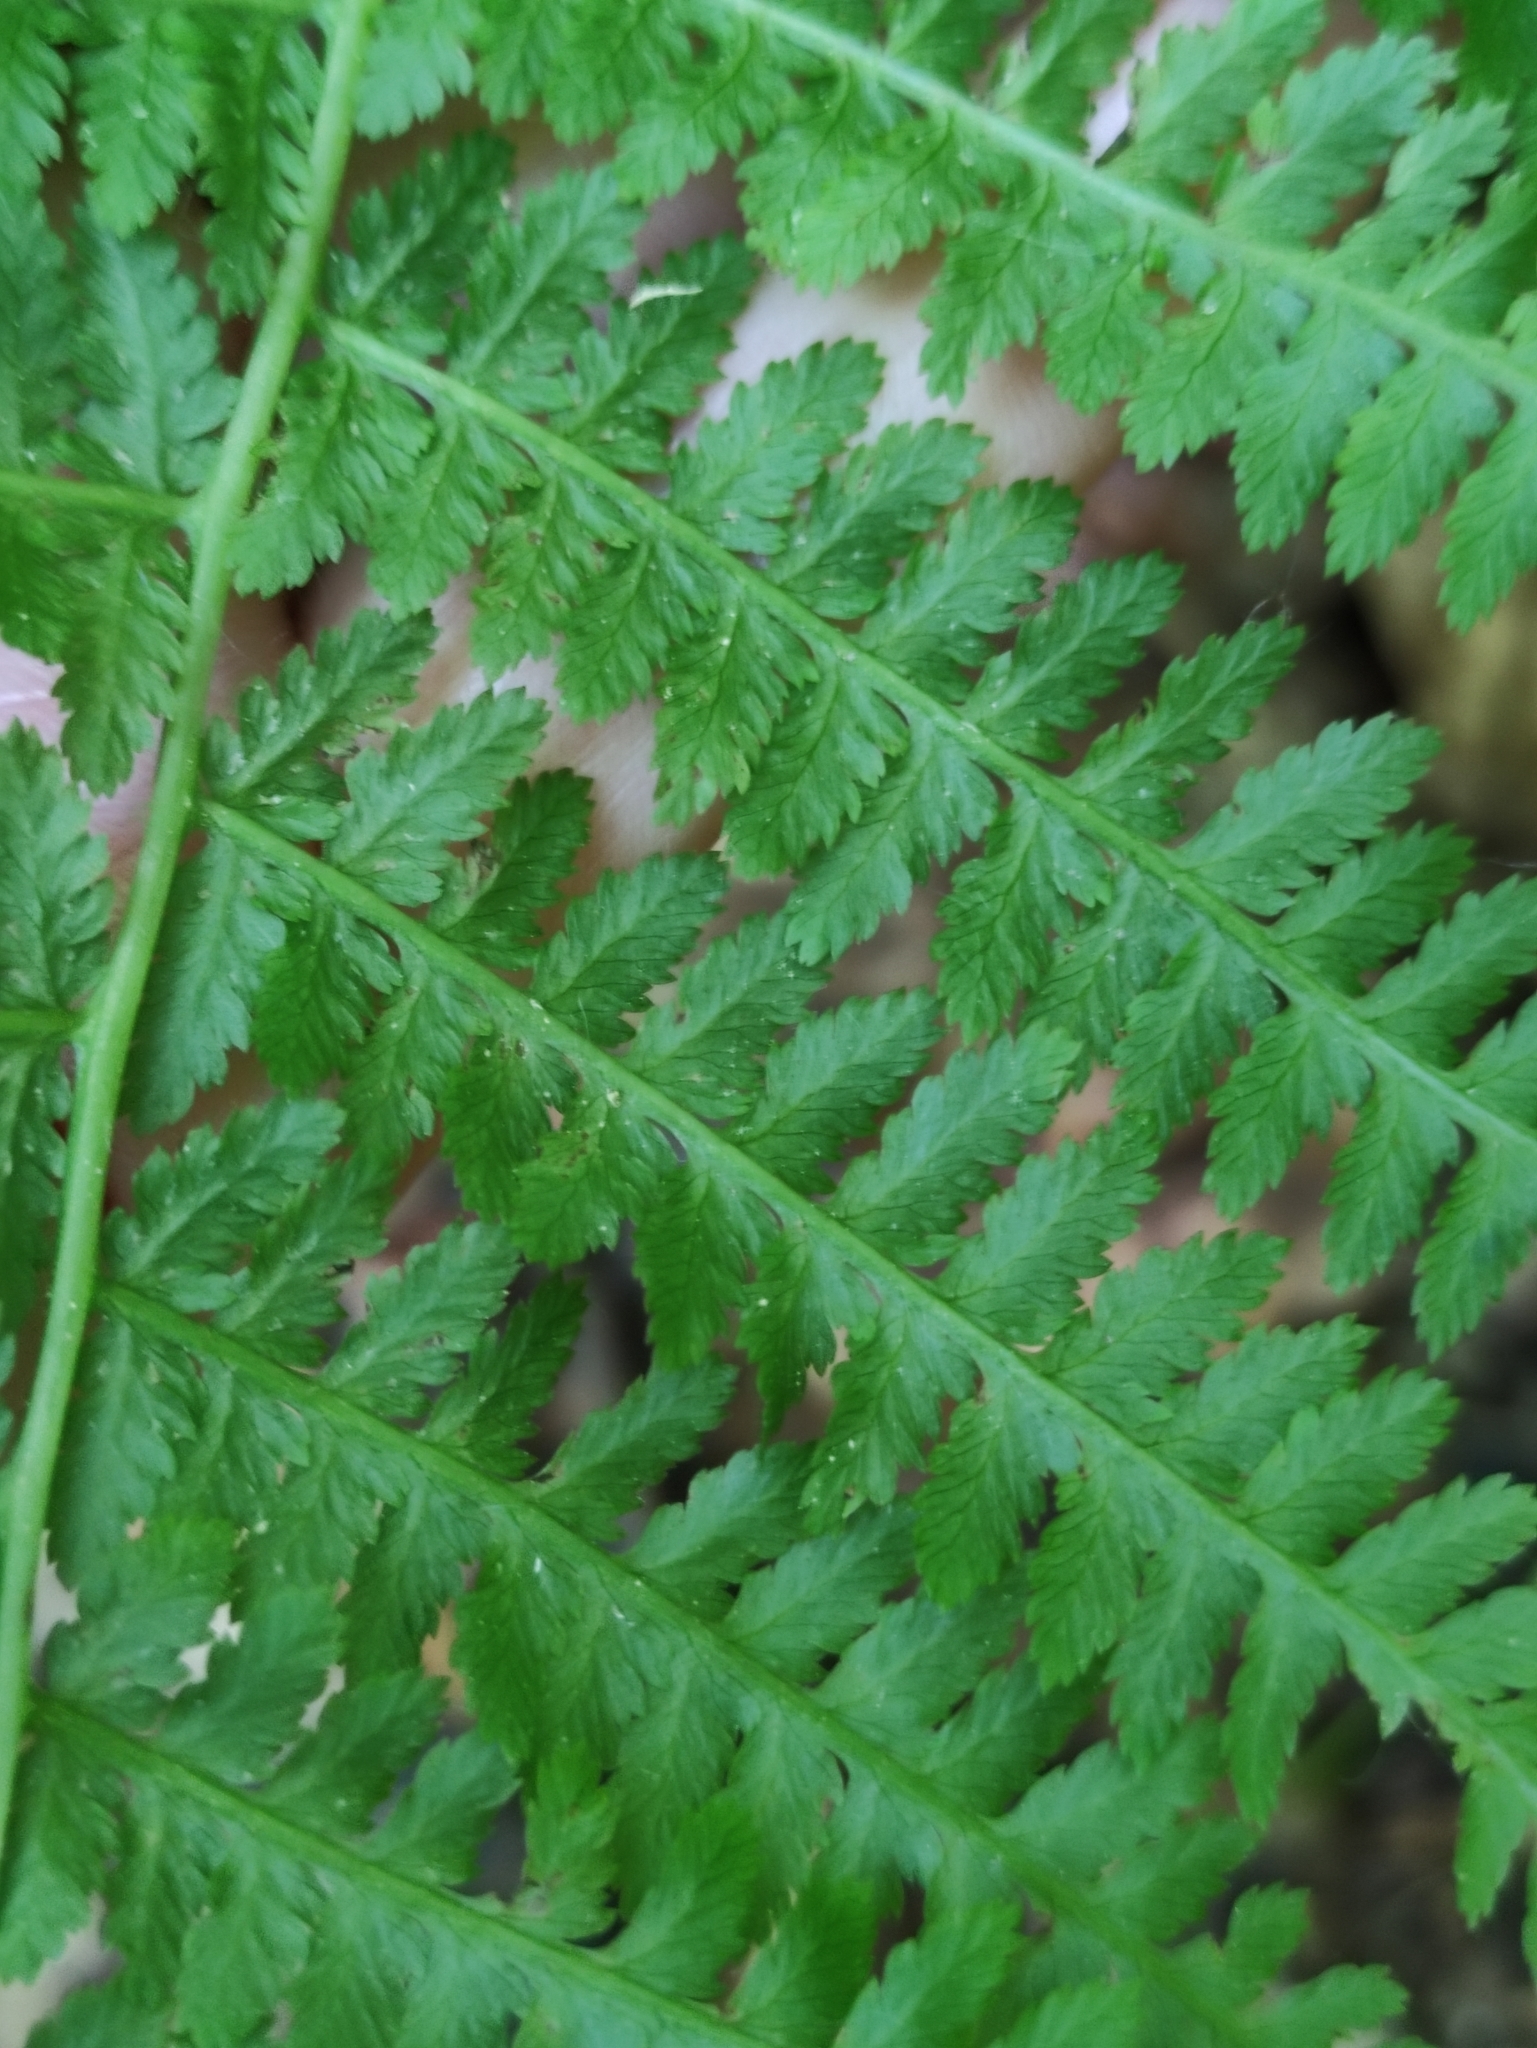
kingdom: Plantae
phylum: Tracheophyta
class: Polypodiopsida
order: Polypodiales
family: Athyriaceae
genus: Athyrium
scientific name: Athyrium filix-femina
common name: Lady fern
